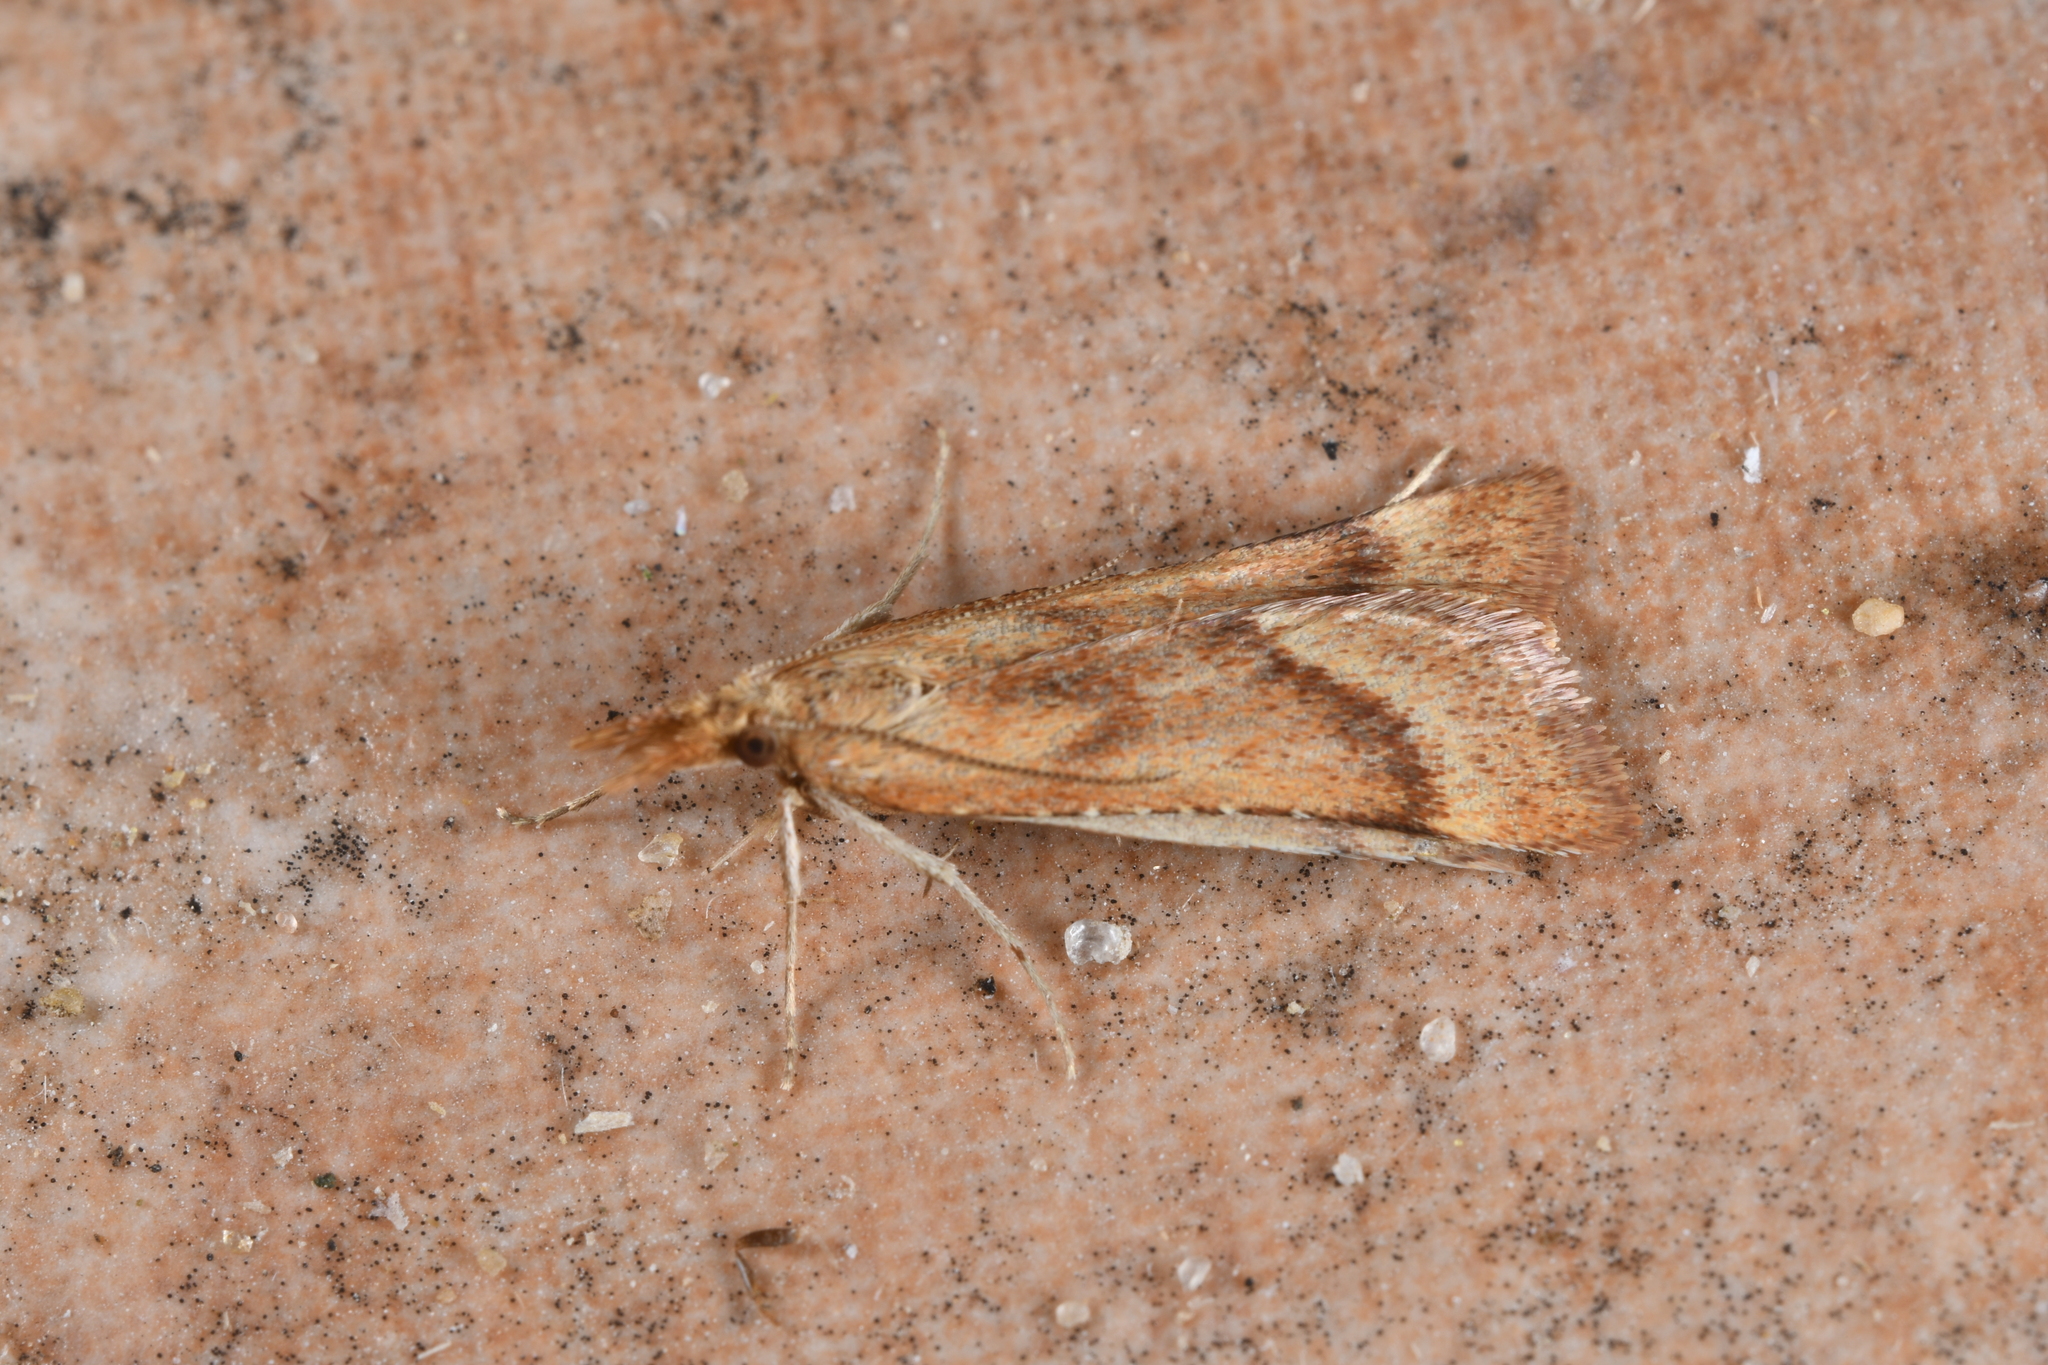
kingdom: Animalia
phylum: Arthropoda
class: Insecta
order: Lepidoptera
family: Pyralidae
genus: Synaphe
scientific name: Synaphe punctalis
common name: Long-legged tabby
